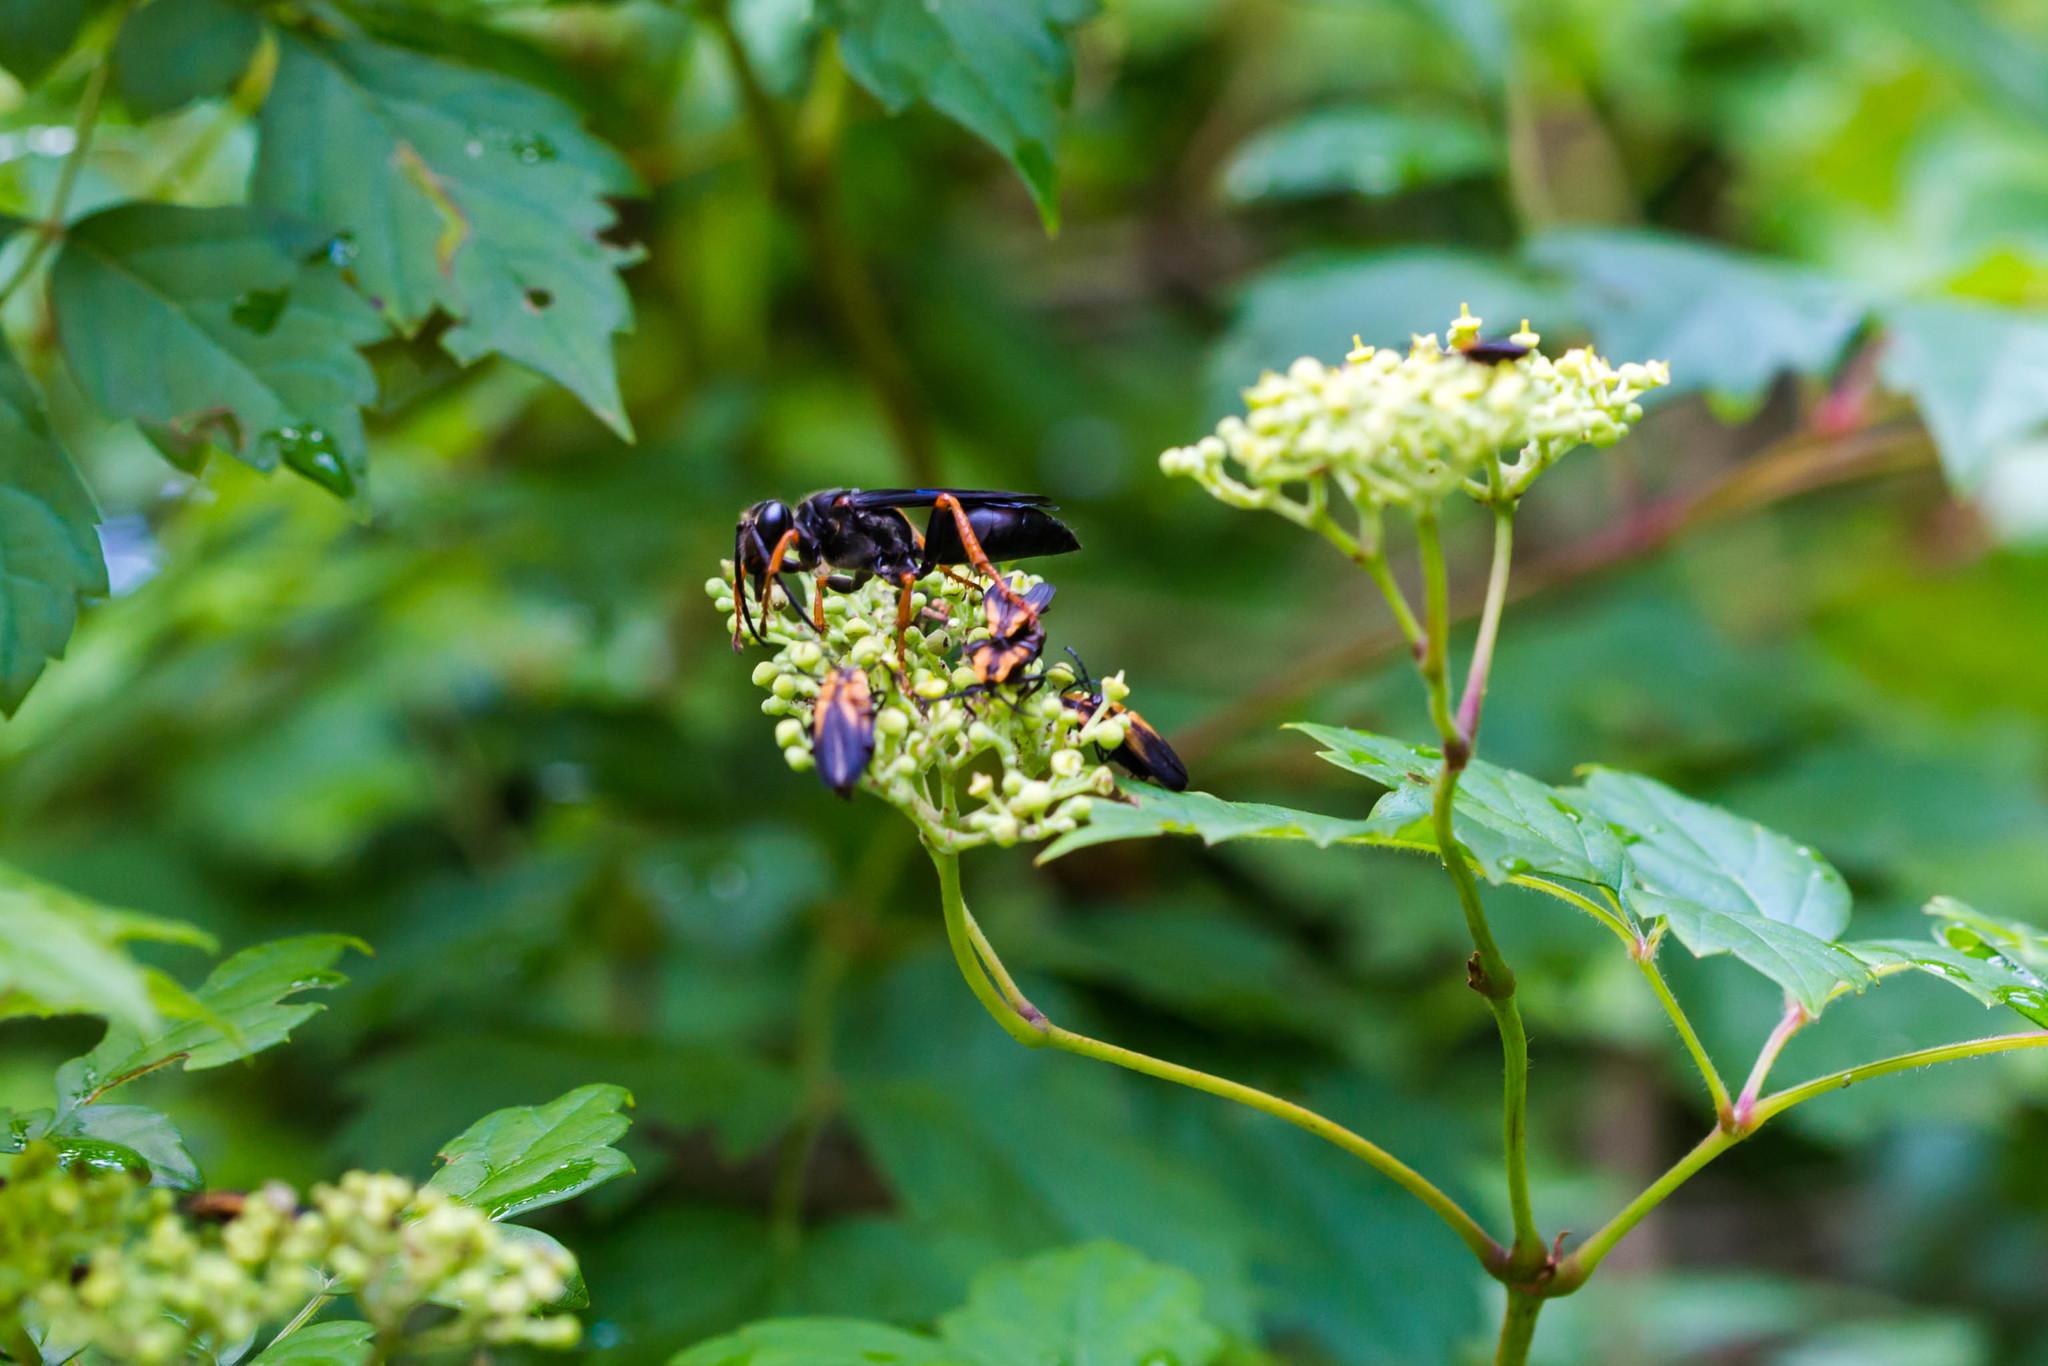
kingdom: Animalia
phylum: Arthropoda
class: Insecta
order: Hymenoptera
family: Sphecidae
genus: Sphex
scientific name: Sphex nudus
